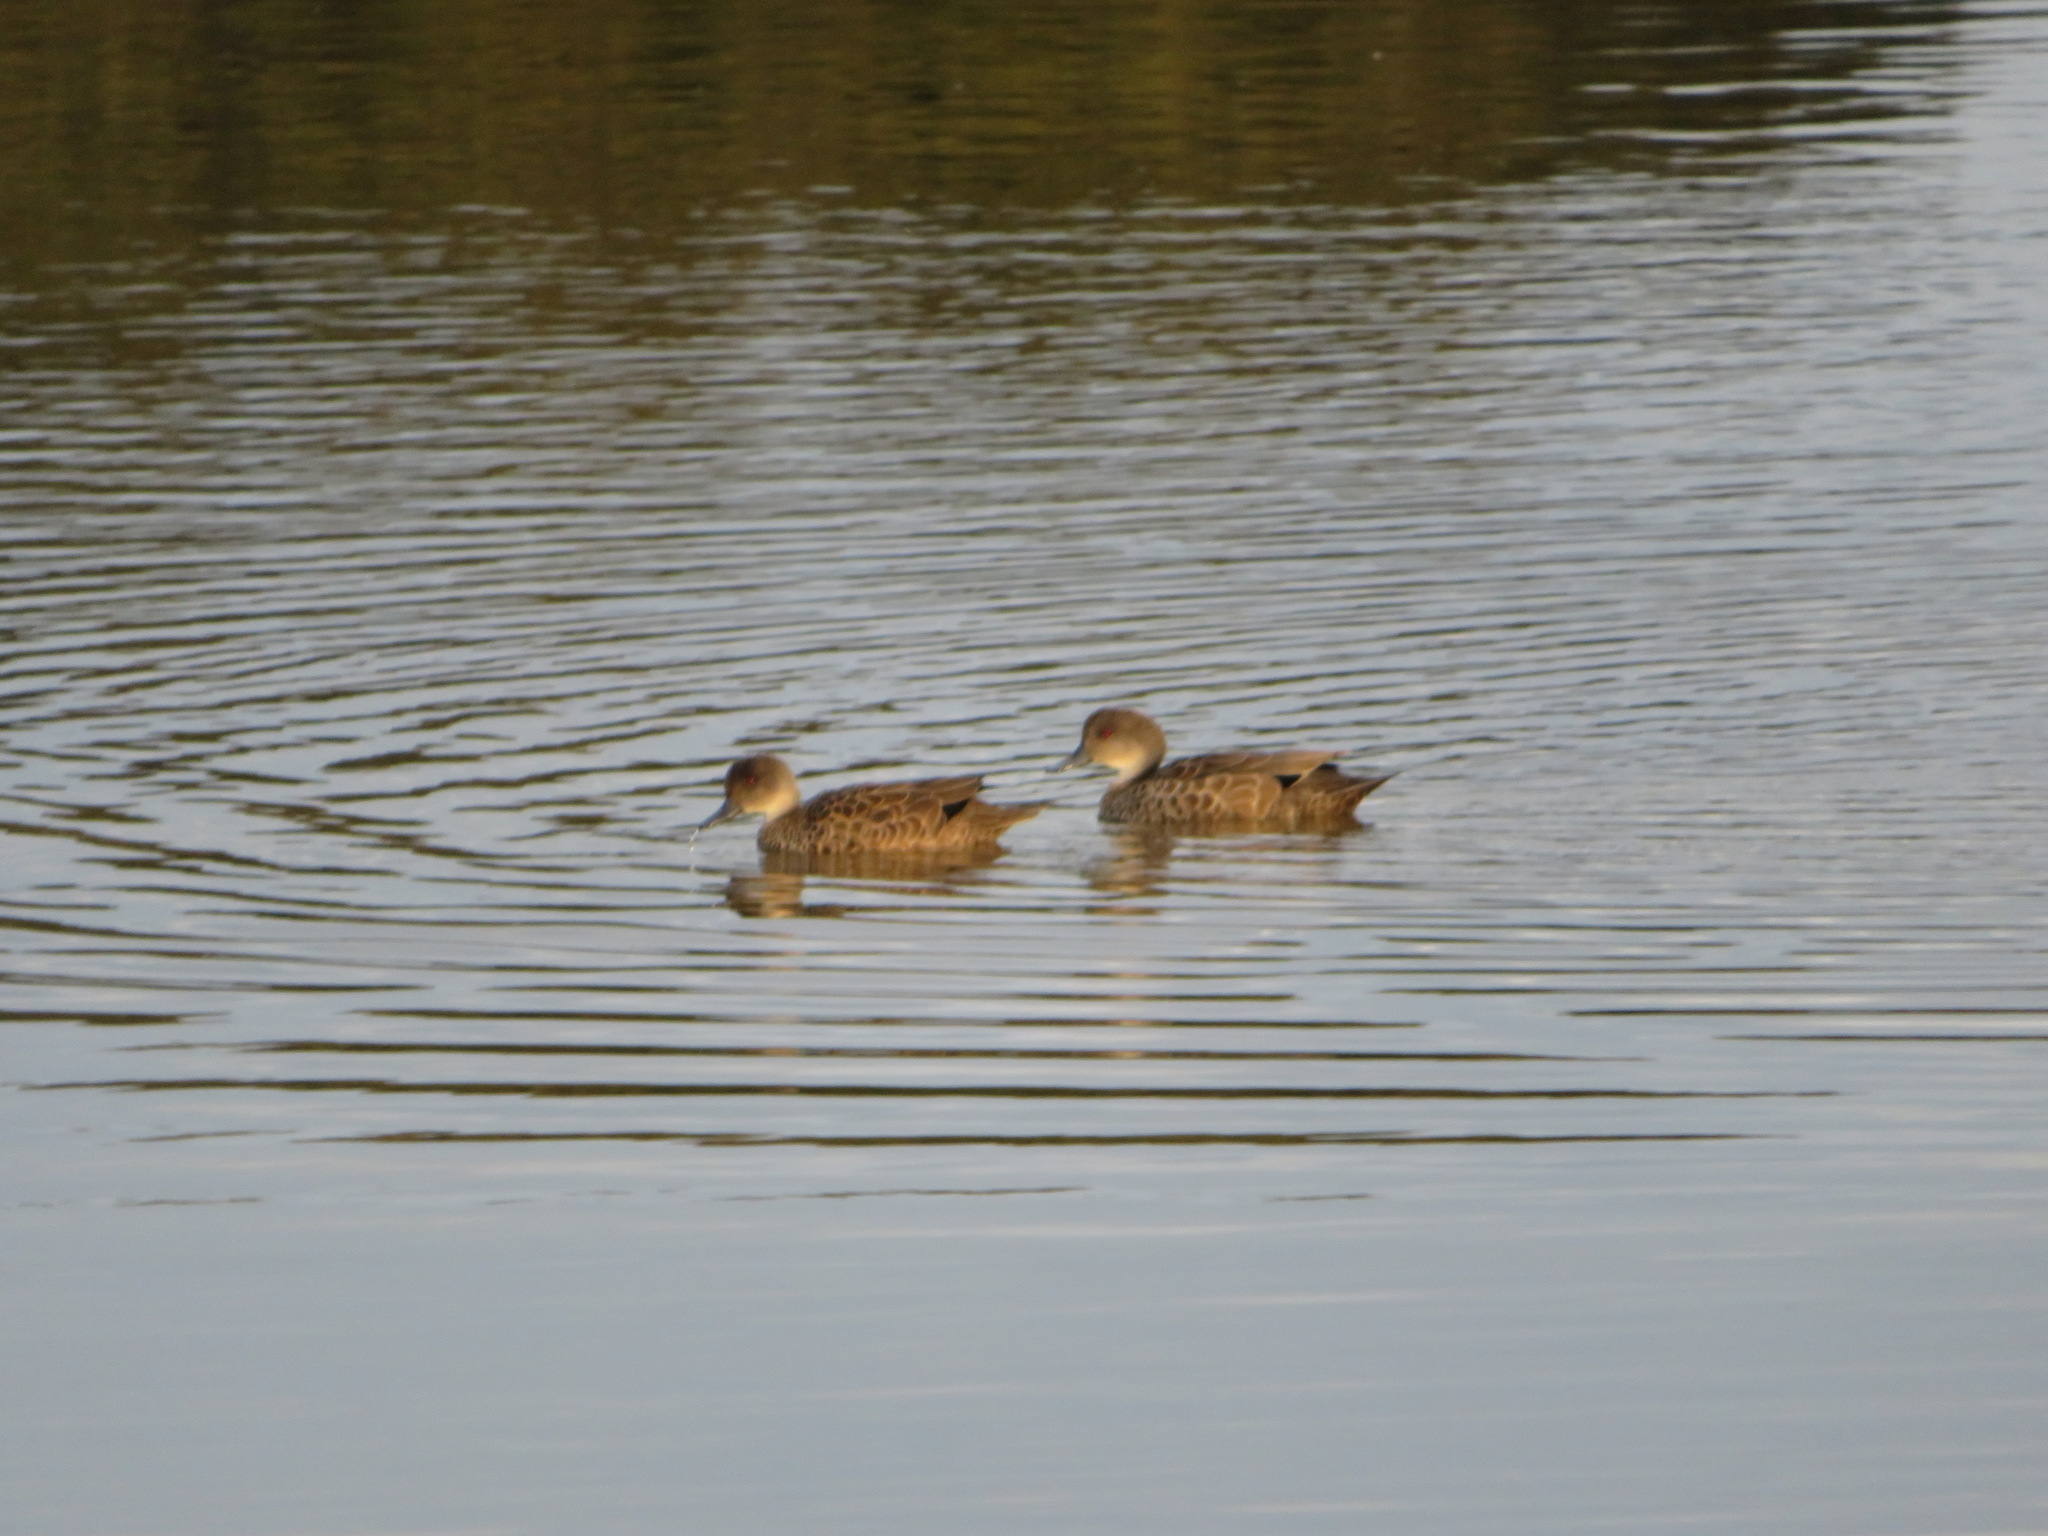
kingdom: Animalia
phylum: Chordata
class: Aves
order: Anseriformes
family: Anatidae
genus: Anas
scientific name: Anas castanea
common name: Chestnut teal
